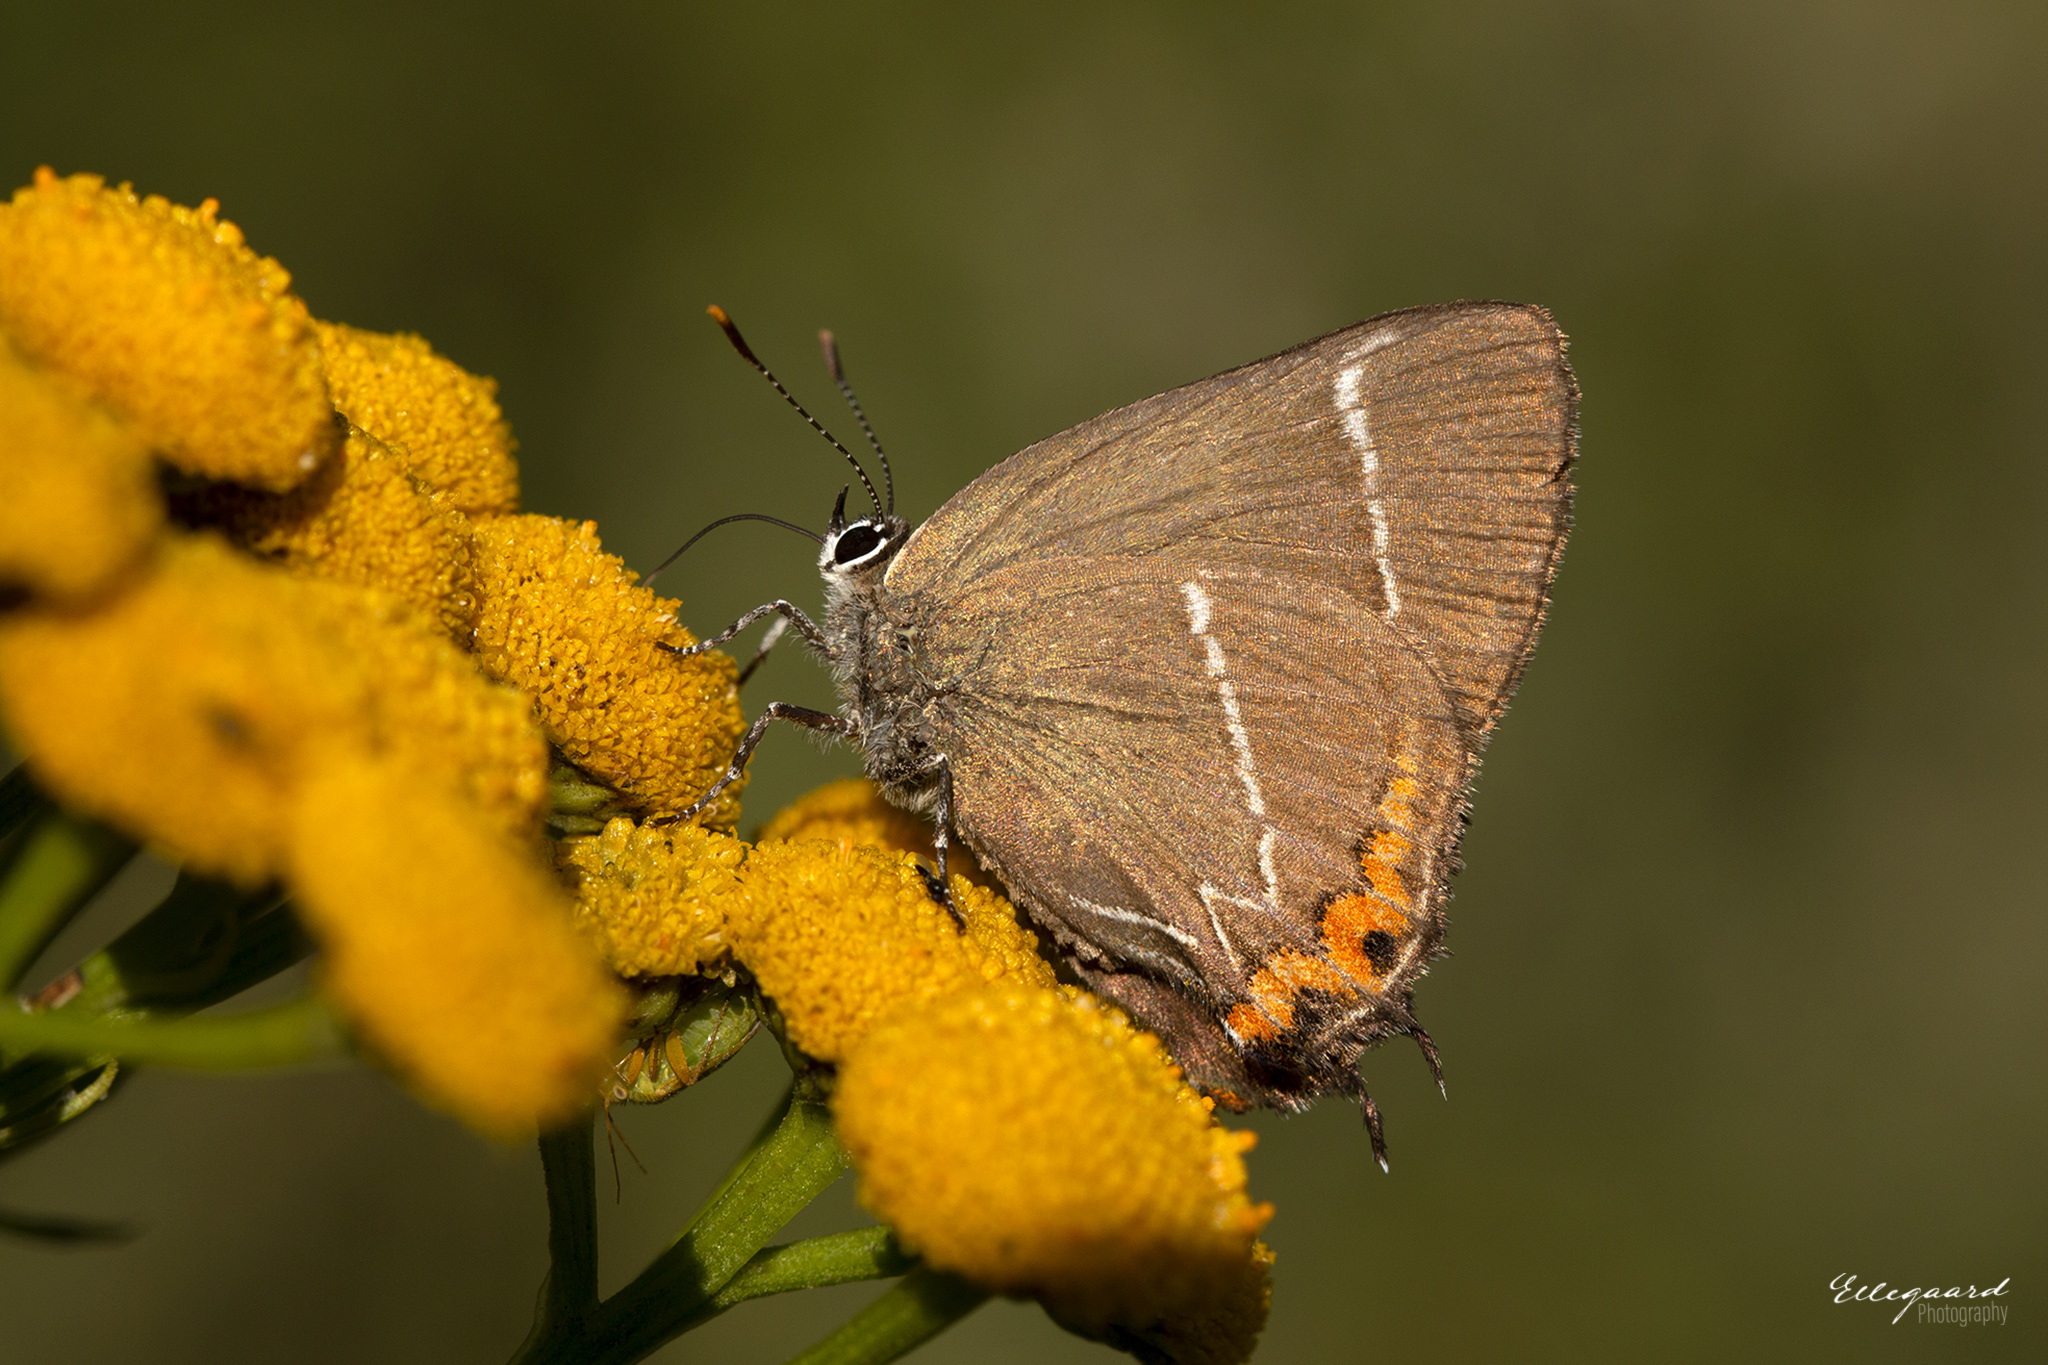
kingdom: Animalia
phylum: Arthropoda
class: Insecta
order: Lepidoptera
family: Lycaenidae
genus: Satyrium
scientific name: Satyrium w-album
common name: White-letter hairstreak
